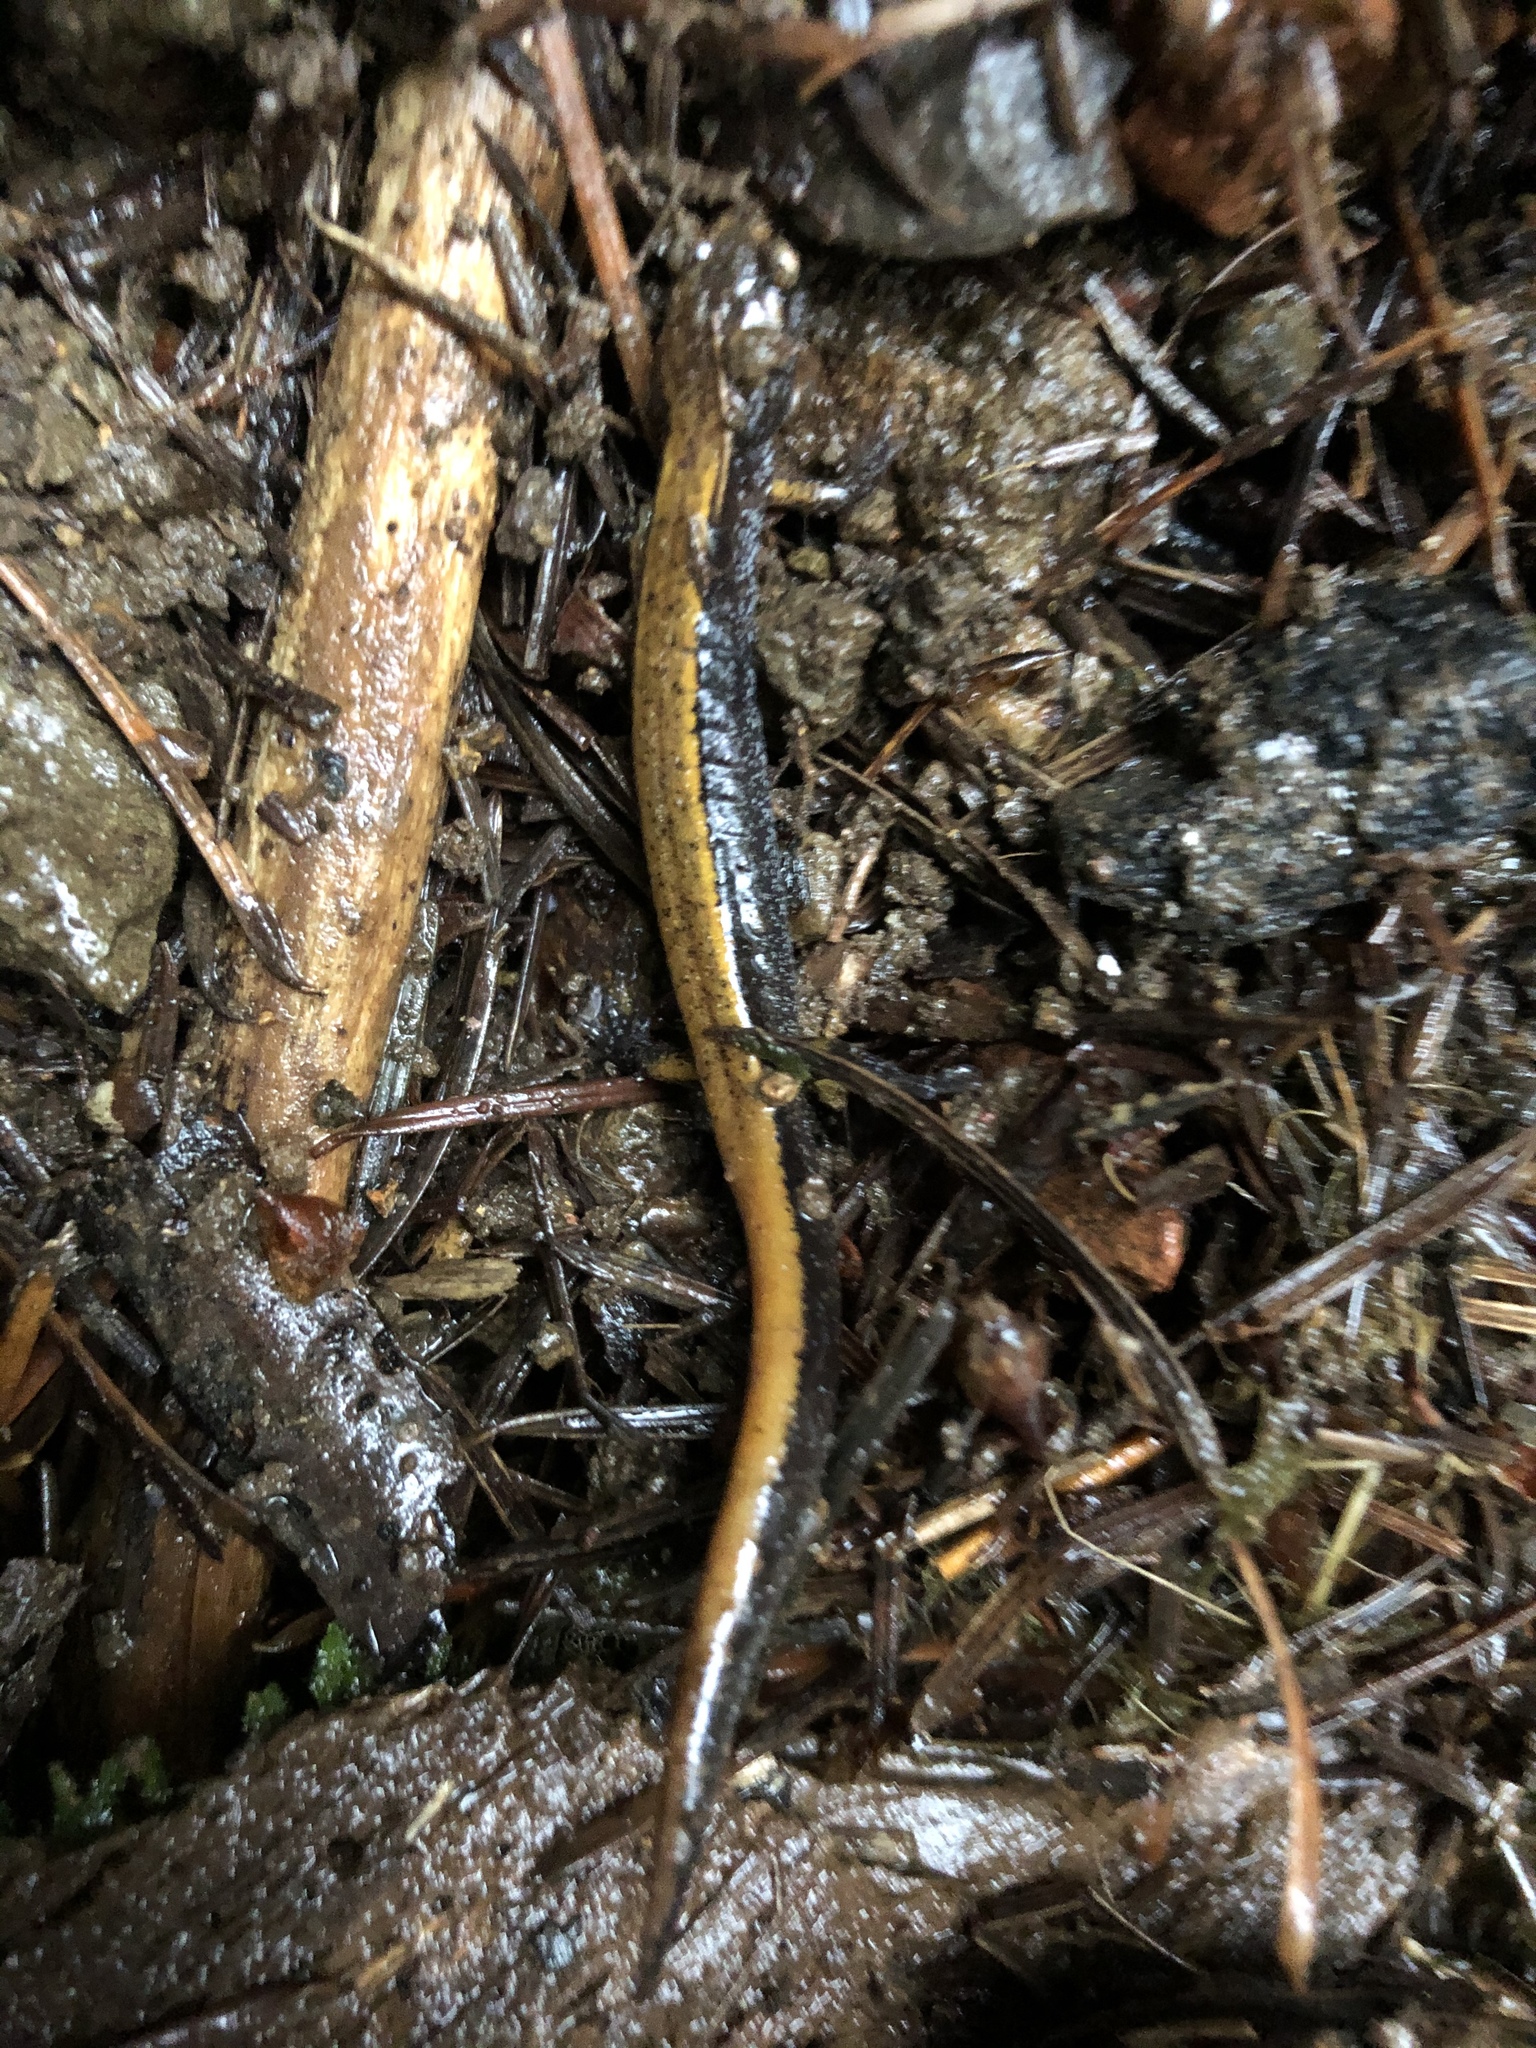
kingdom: Animalia
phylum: Chordata
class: Amphibia
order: Caudata
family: Plethodontidae
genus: Plethodon
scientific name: Plethodon vehiculum
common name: Western red-backed salamander
